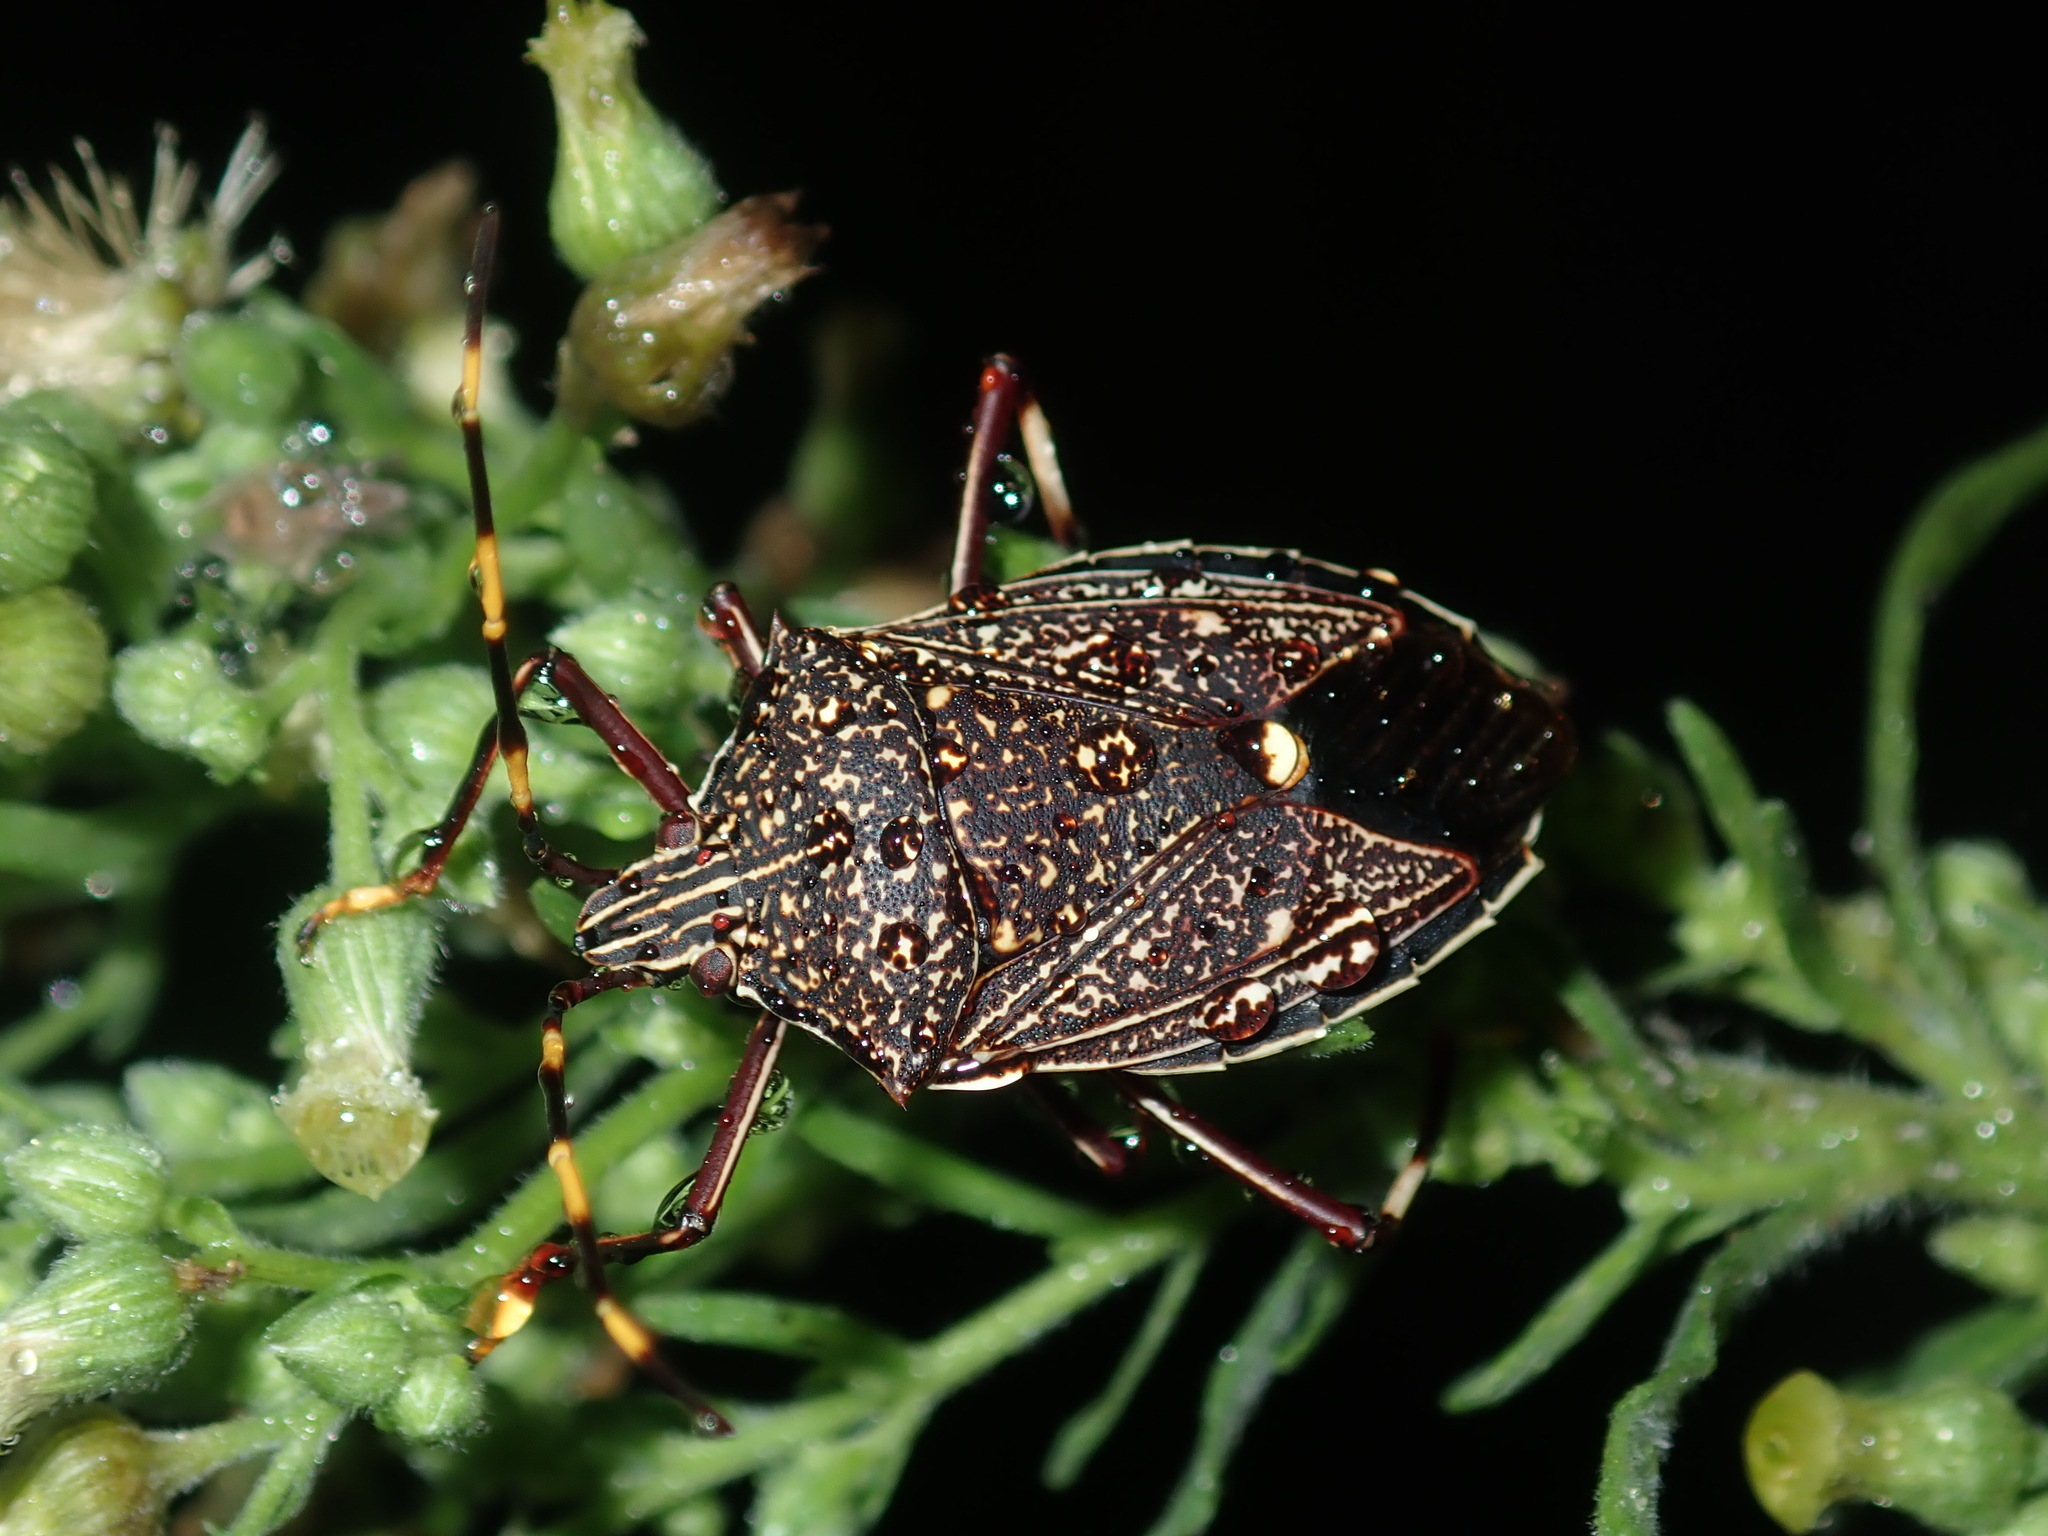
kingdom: Animalia
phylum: Arthropoda
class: Insecta
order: Hemiptera
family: Pentatomidae
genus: Poecilometis
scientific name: Poecilometis
